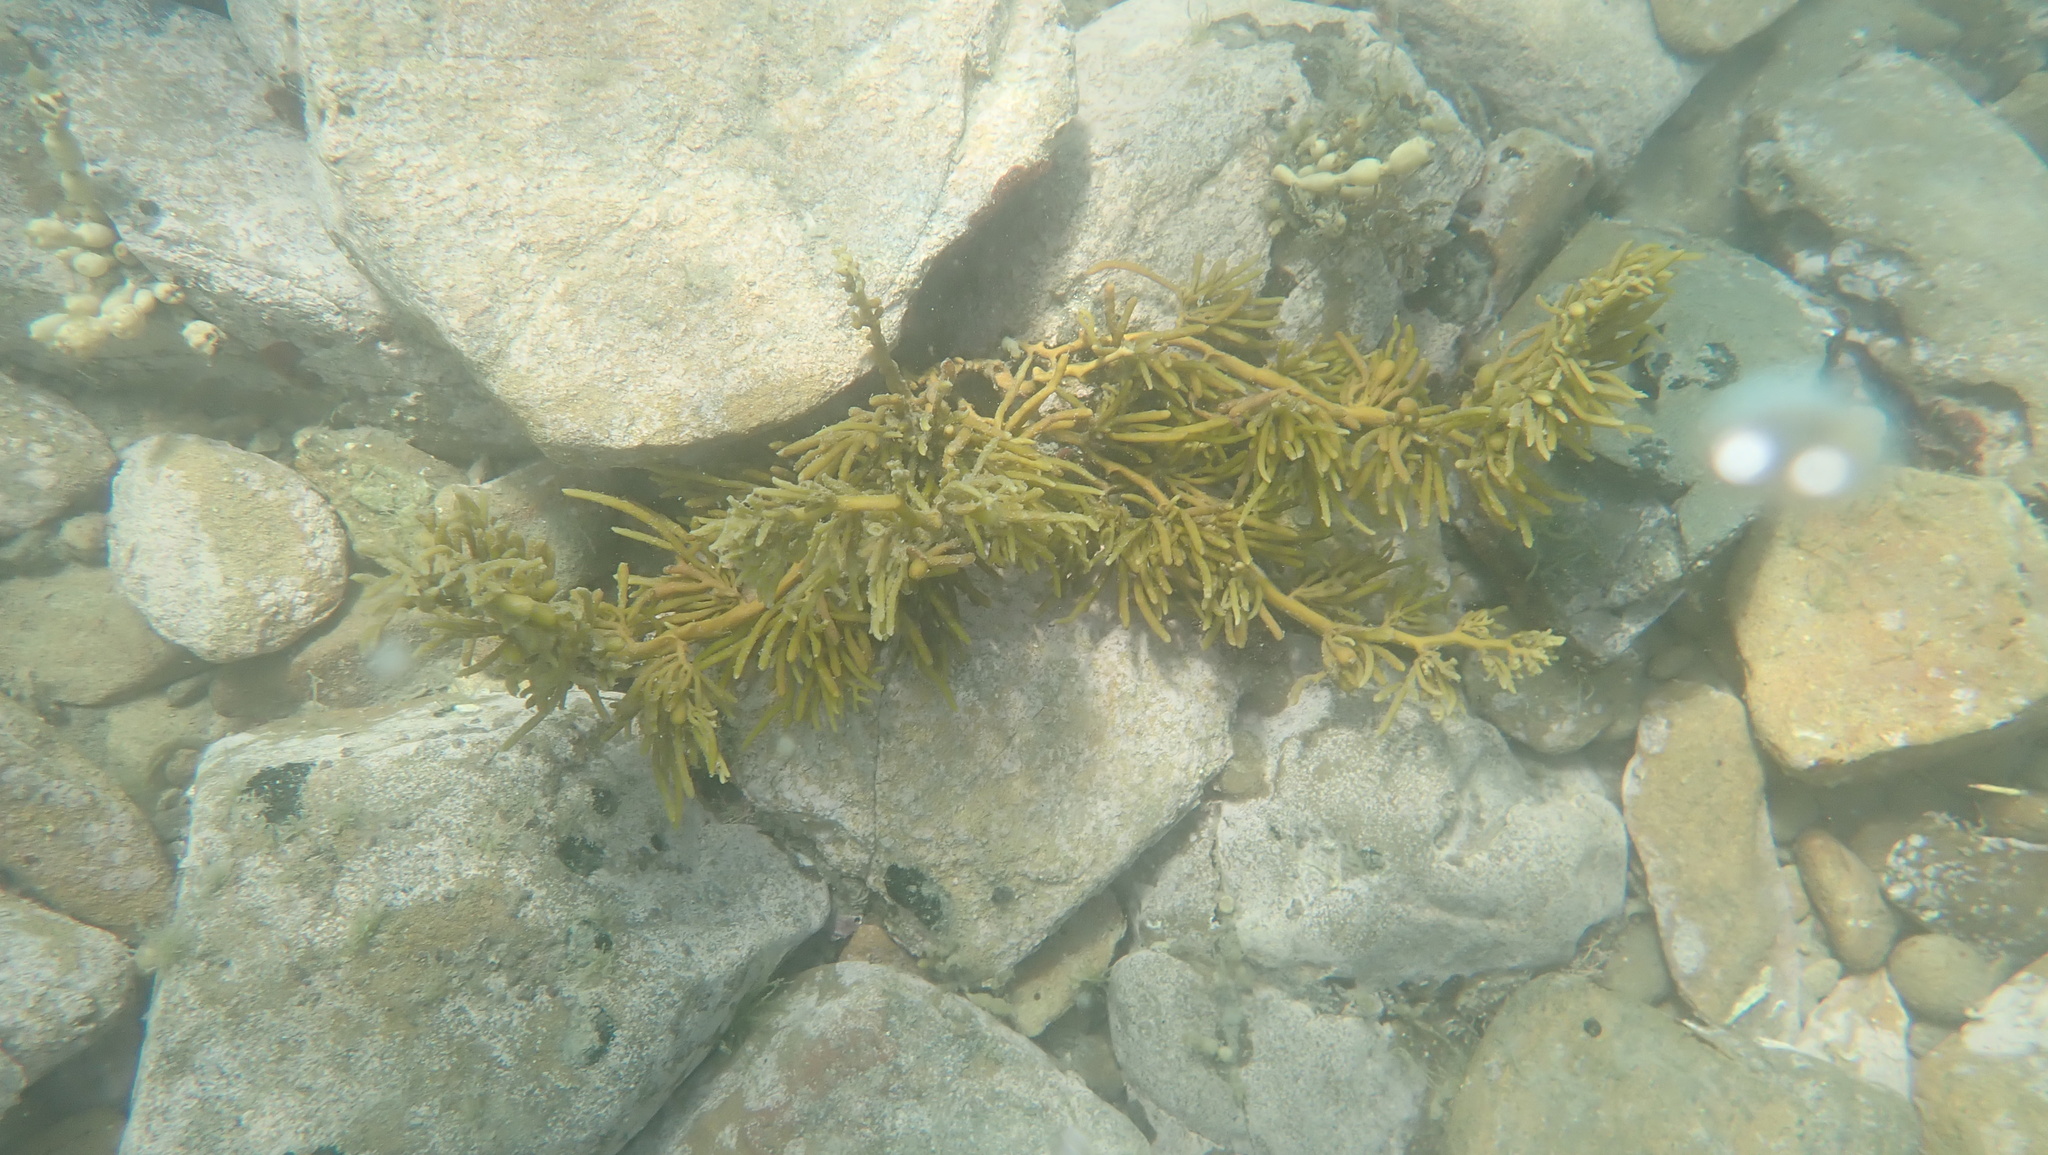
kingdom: Chromista
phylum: Ochrophyta
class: Phaeophyceae
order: Fucales
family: Sargassaceae
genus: Cystophora
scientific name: Cystophora torulosa
